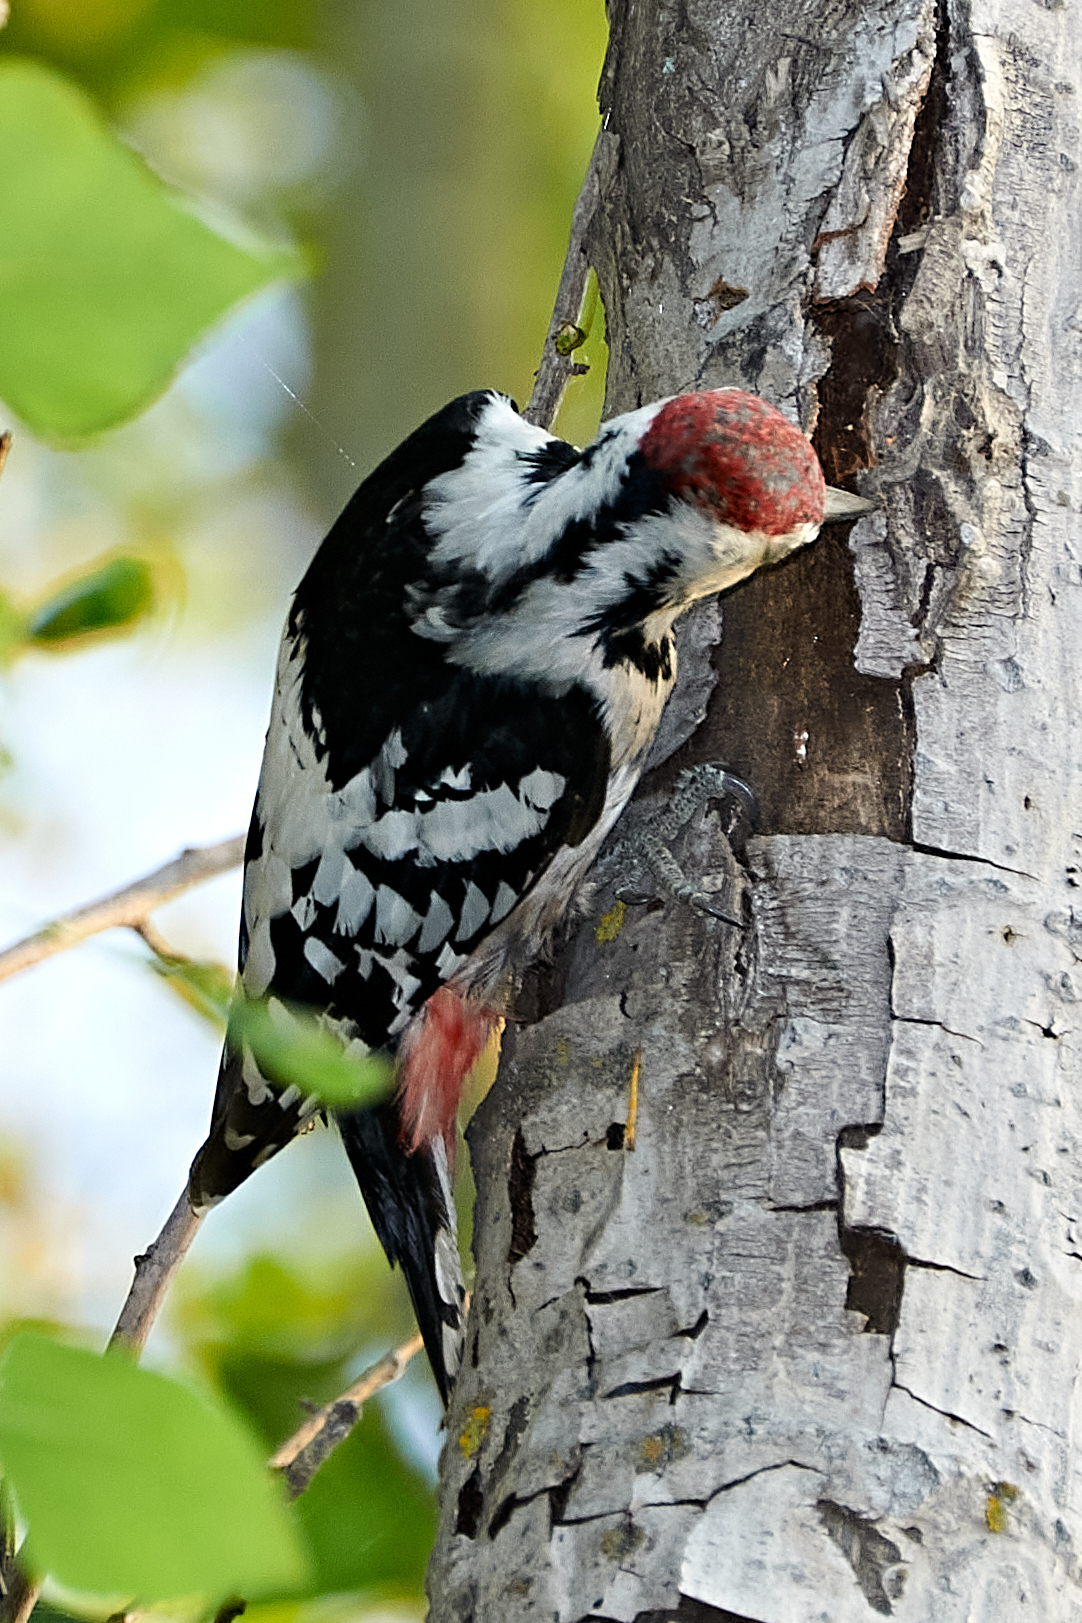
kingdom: Animalia
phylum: Chordata
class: Aves
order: Piciformes
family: Picidae
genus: Dendrocopos
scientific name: Dendrocopos leucotos
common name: White-backed woodpecker
